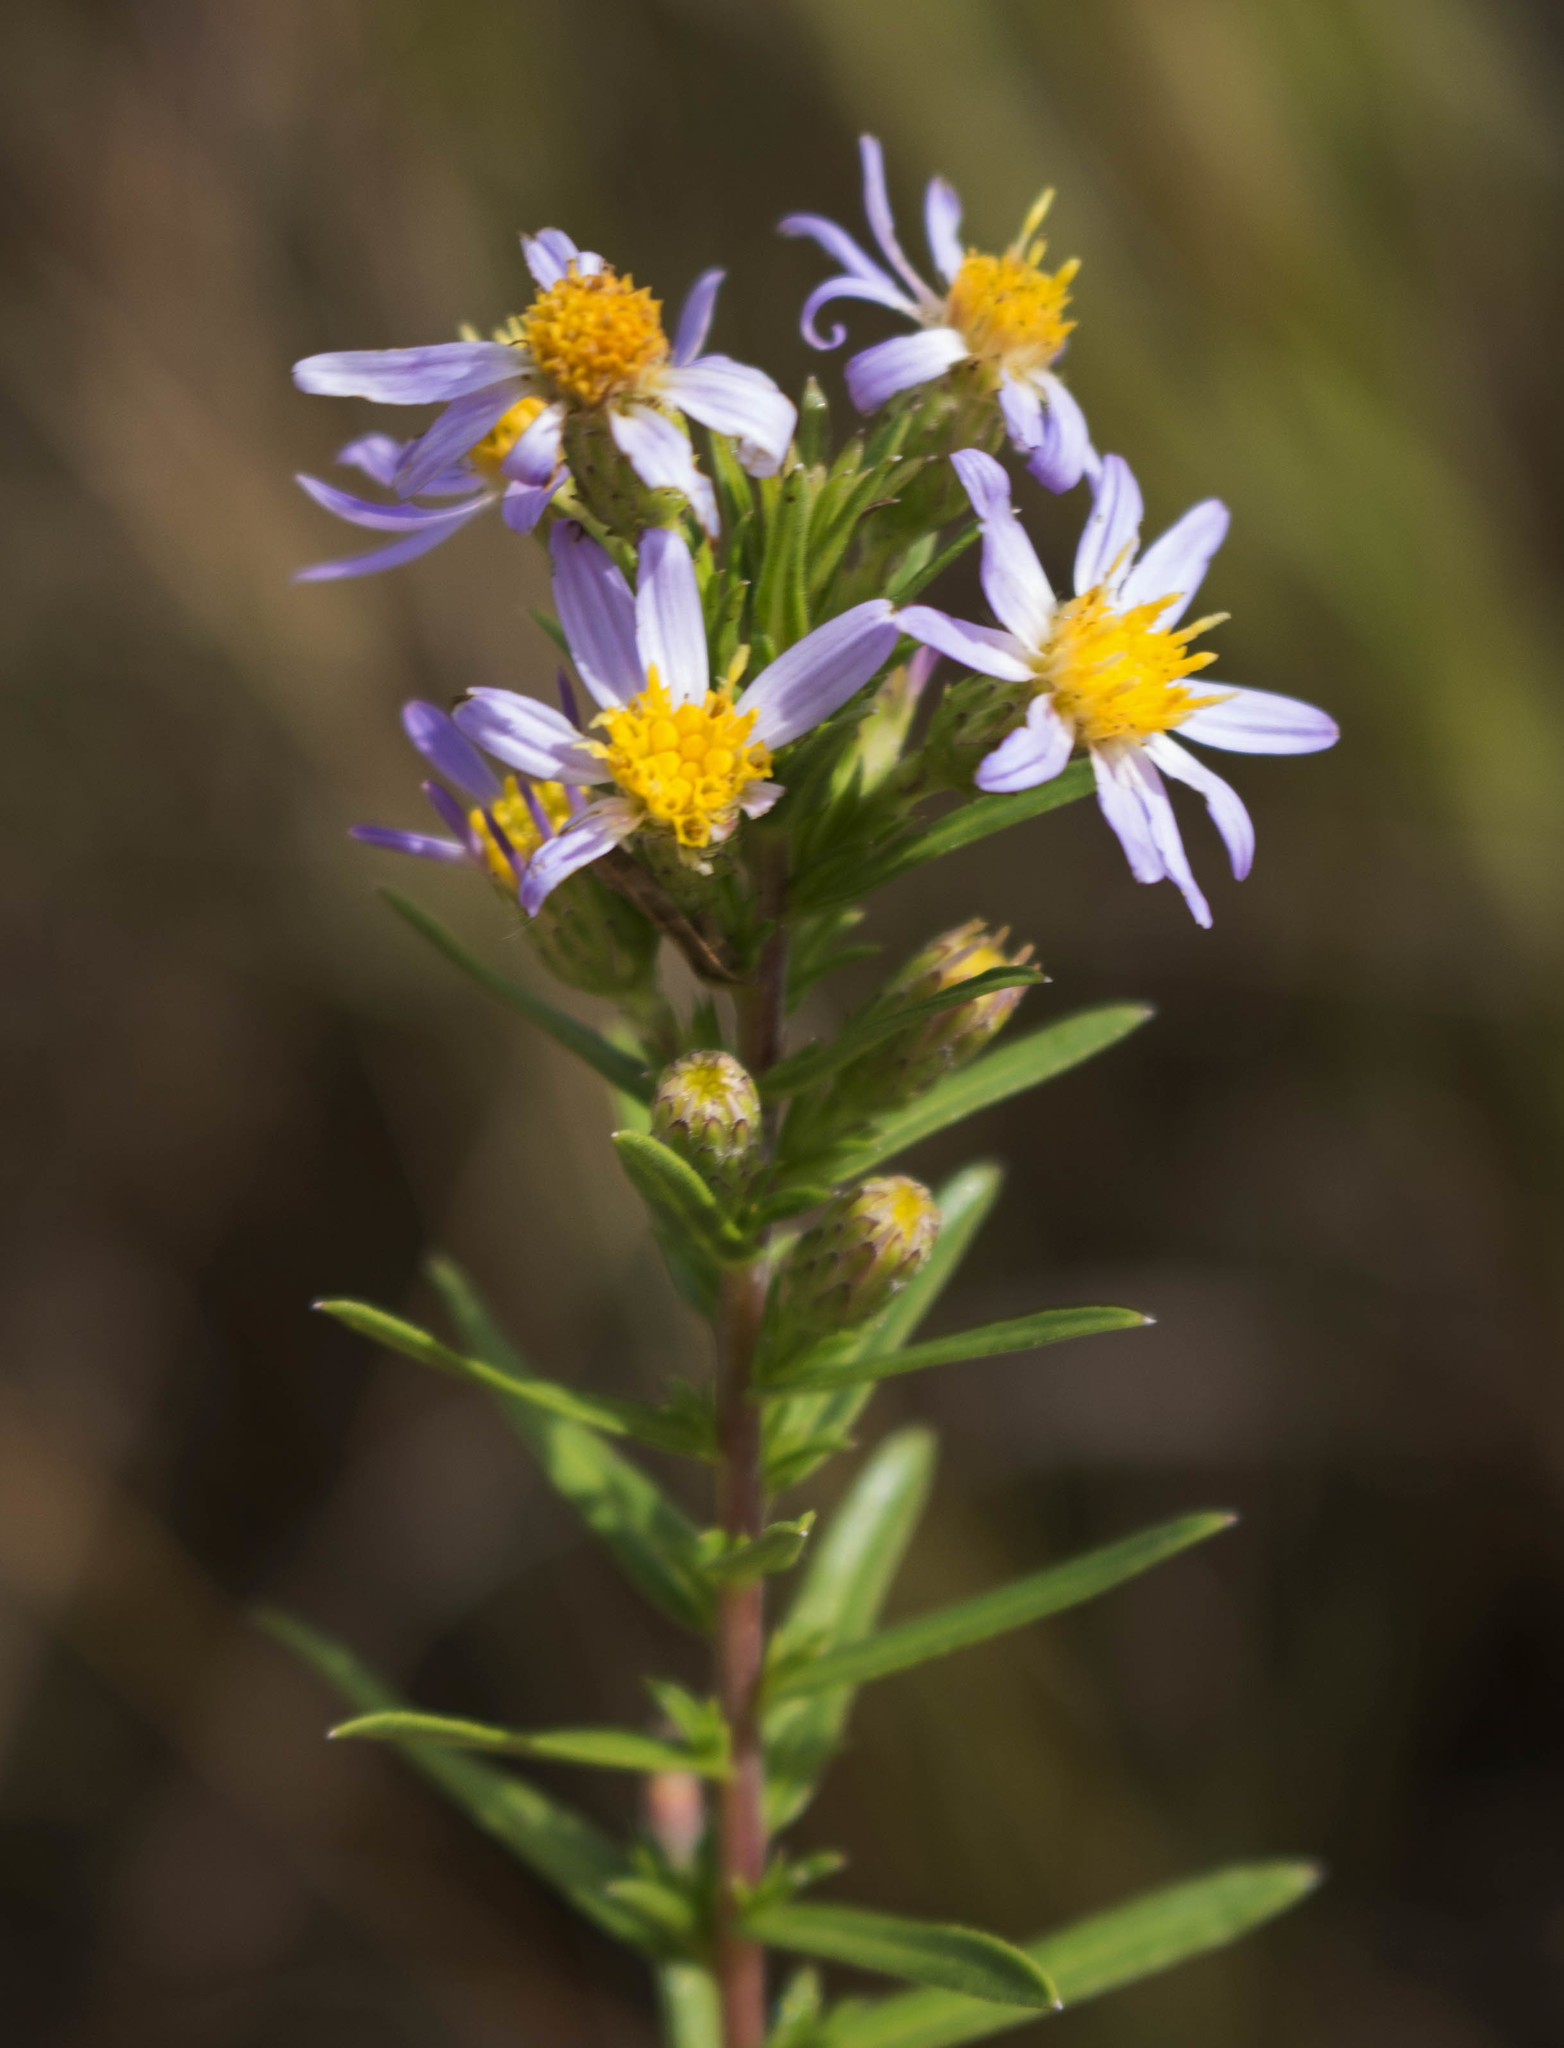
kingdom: Plantae
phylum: Tracheophyta
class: Magnoliopsida
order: Asterales
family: Asteraceae
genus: Ionactis
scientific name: Ionactis linariifolia
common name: Flax-leaf aster
